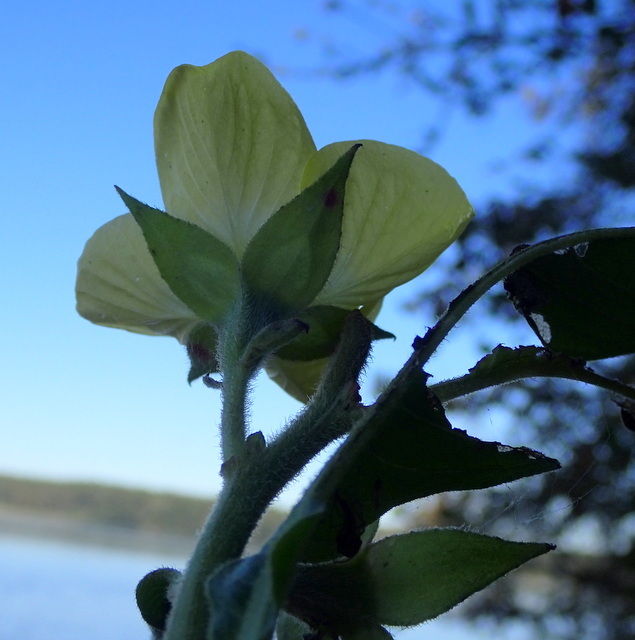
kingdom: Plantae
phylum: Tracheophyta
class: Magnoliopsida
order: Myrtales
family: Onagraceae
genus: Ludwigia
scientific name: Ludwigia peruviana
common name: Peruvian primrose-willow
